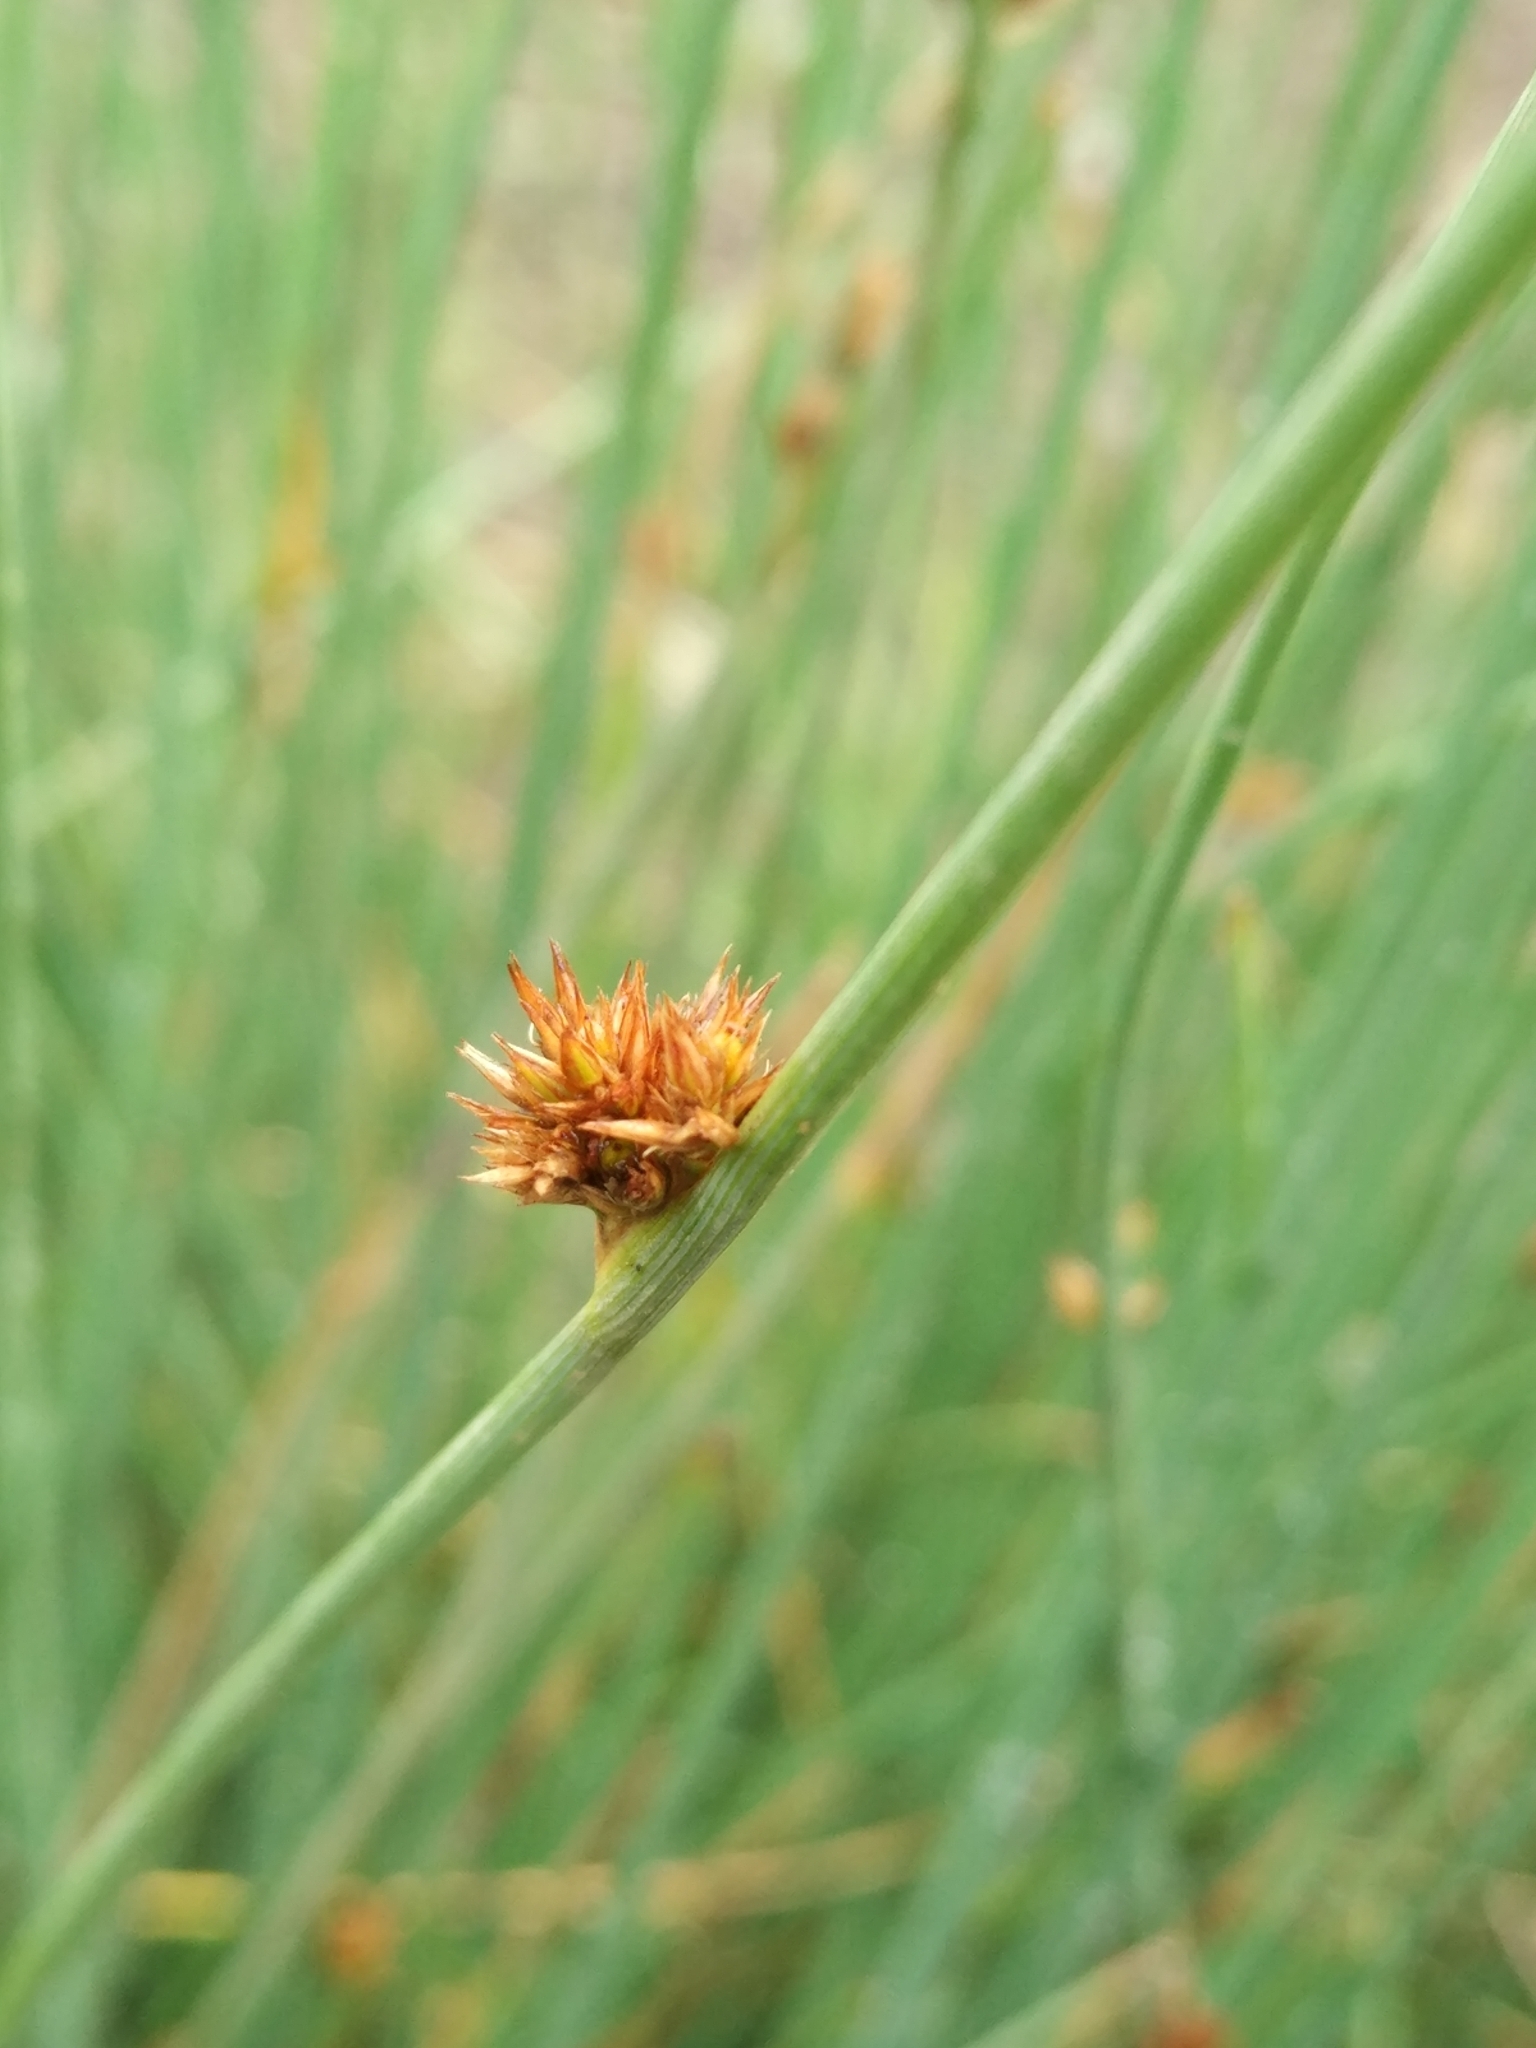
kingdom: Plantae
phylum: Tracheophyta
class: Liliopsida
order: Poales
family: Juncaceae
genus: Juncus
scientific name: Juncus inflexus
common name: Hard rush
